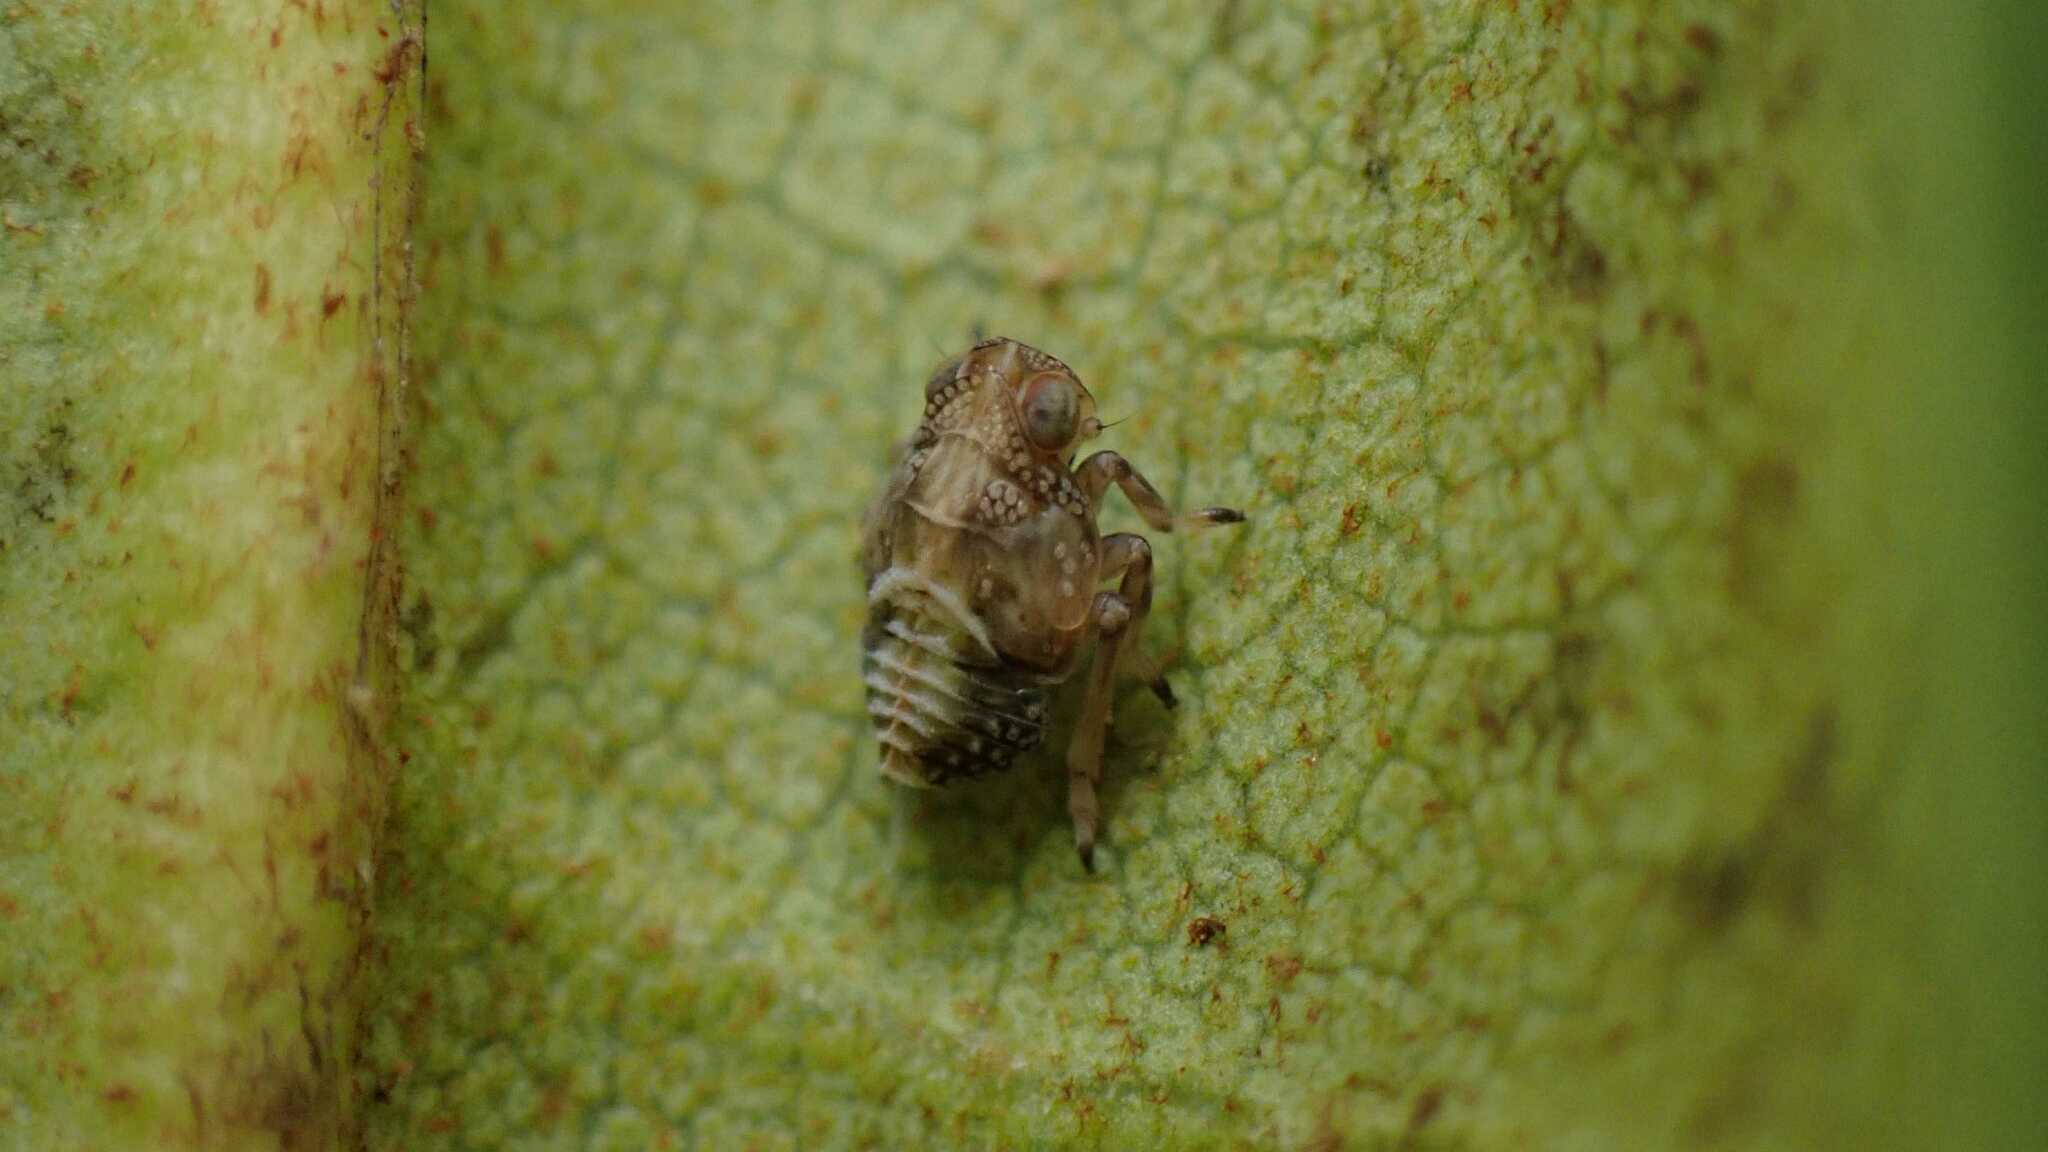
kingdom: Animalia
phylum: Arthropoda
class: Insecta
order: Hemiptera
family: Issidae
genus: Issus
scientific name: Issus coleoptratus
